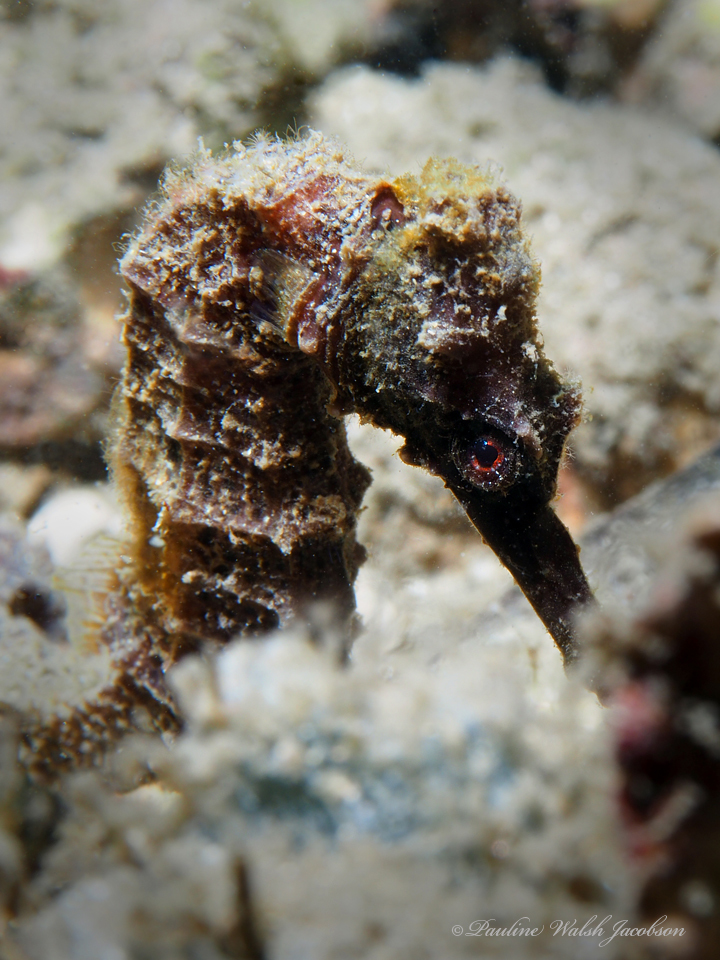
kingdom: Animalia
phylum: Chordata
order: Syngnathiformes
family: Syngnathidae
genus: Hippocampus
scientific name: Hippocampus reidi
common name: Slender seahorse
